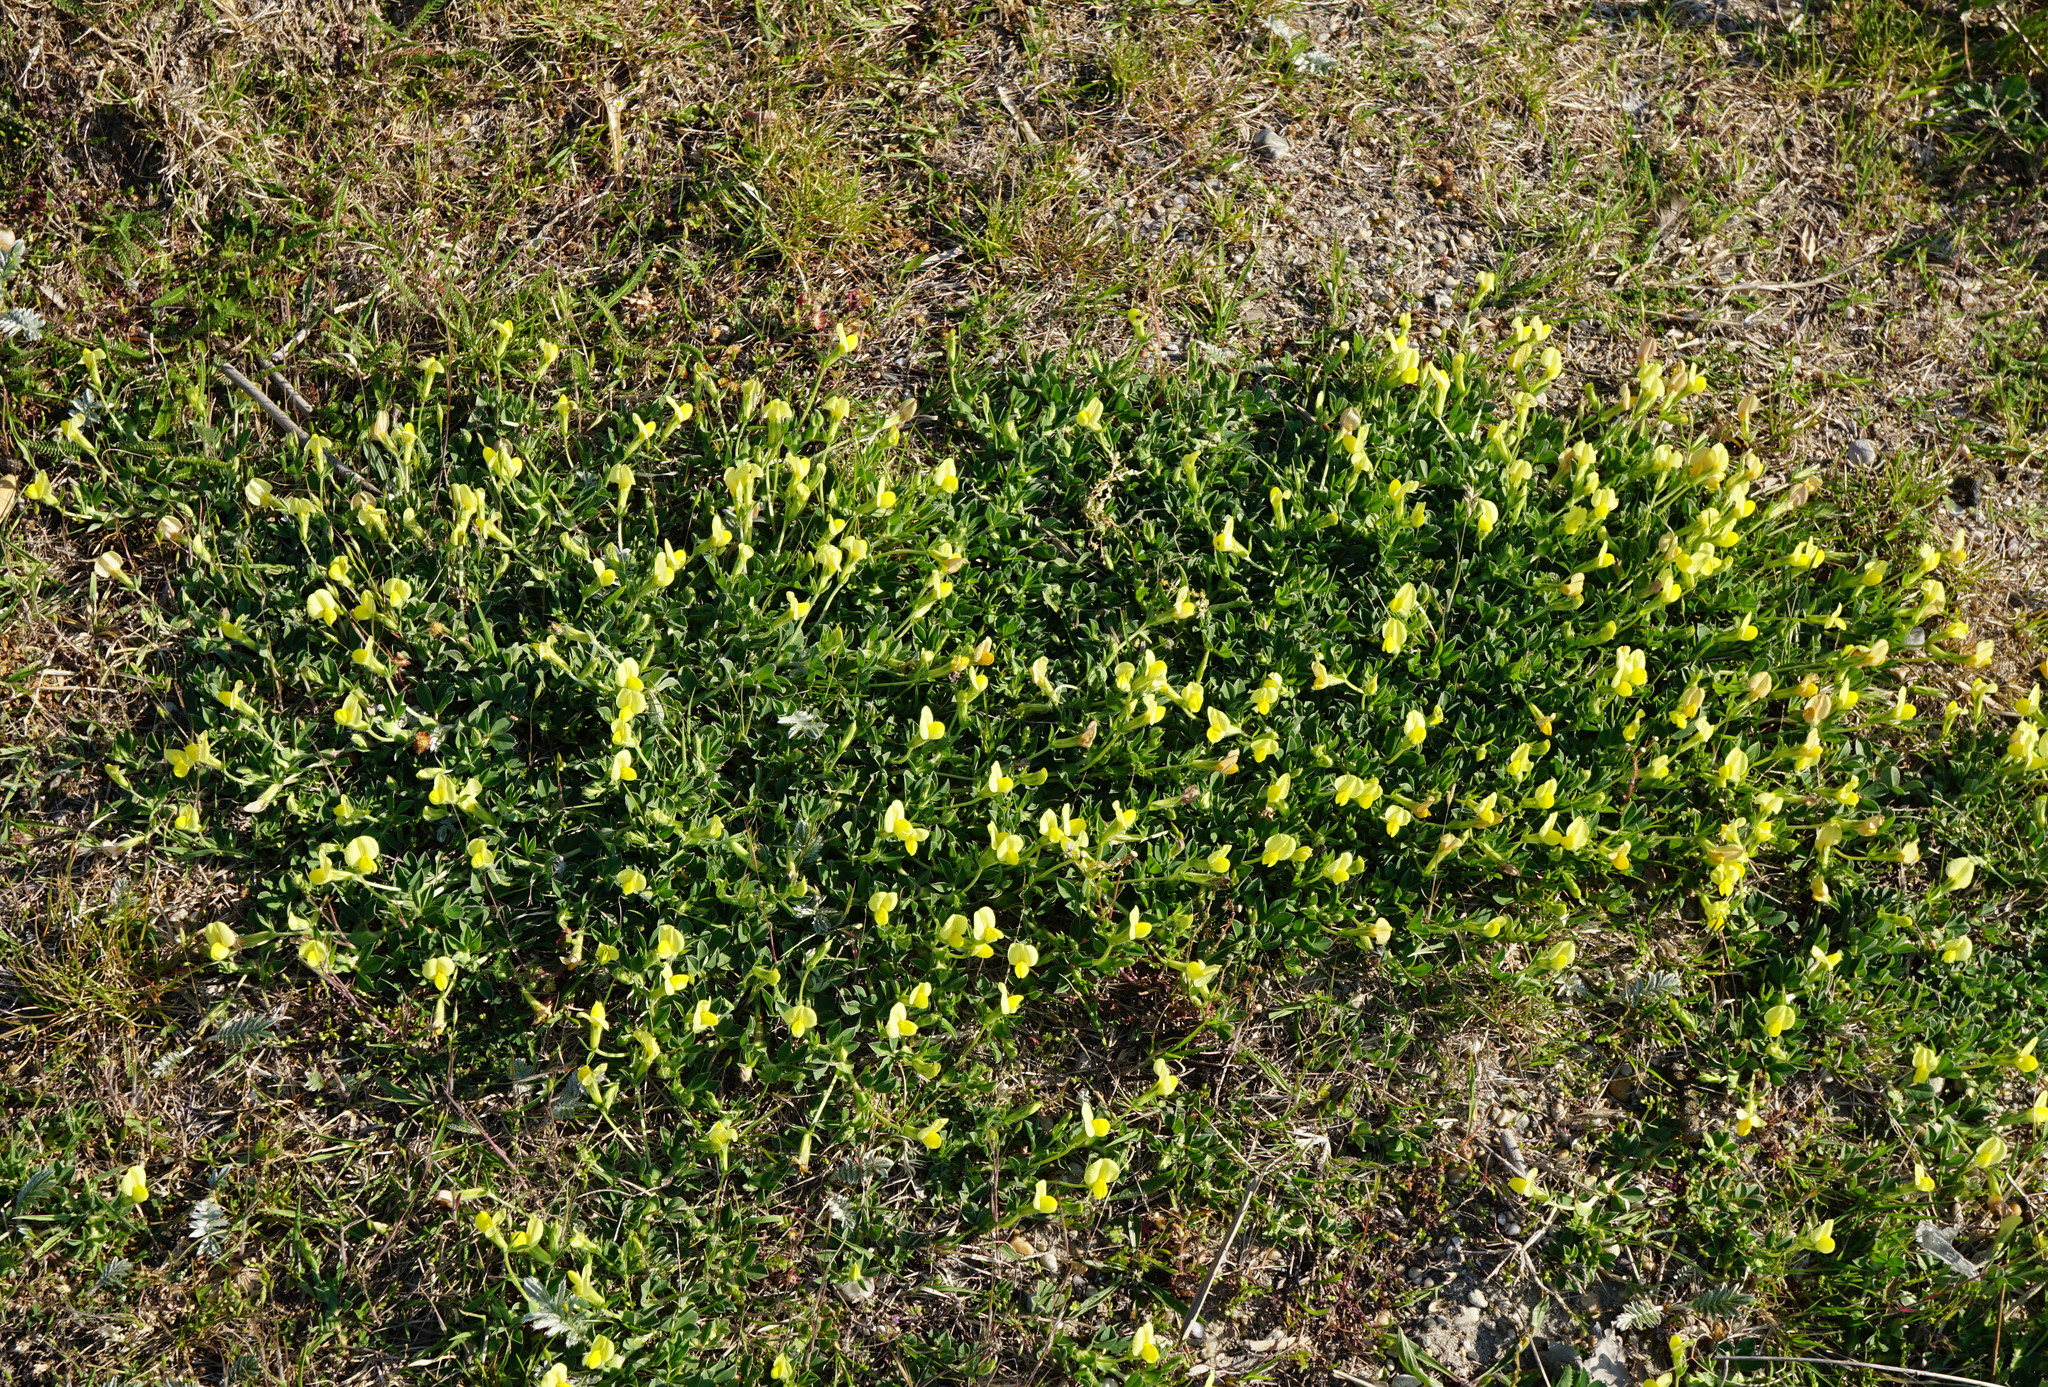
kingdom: Plantae
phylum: Tracheophyta
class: Magnoliopsida
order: Fabales
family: Fabaceae
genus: Lotus
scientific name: Lotus maritimus
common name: Dragon's-teeth
